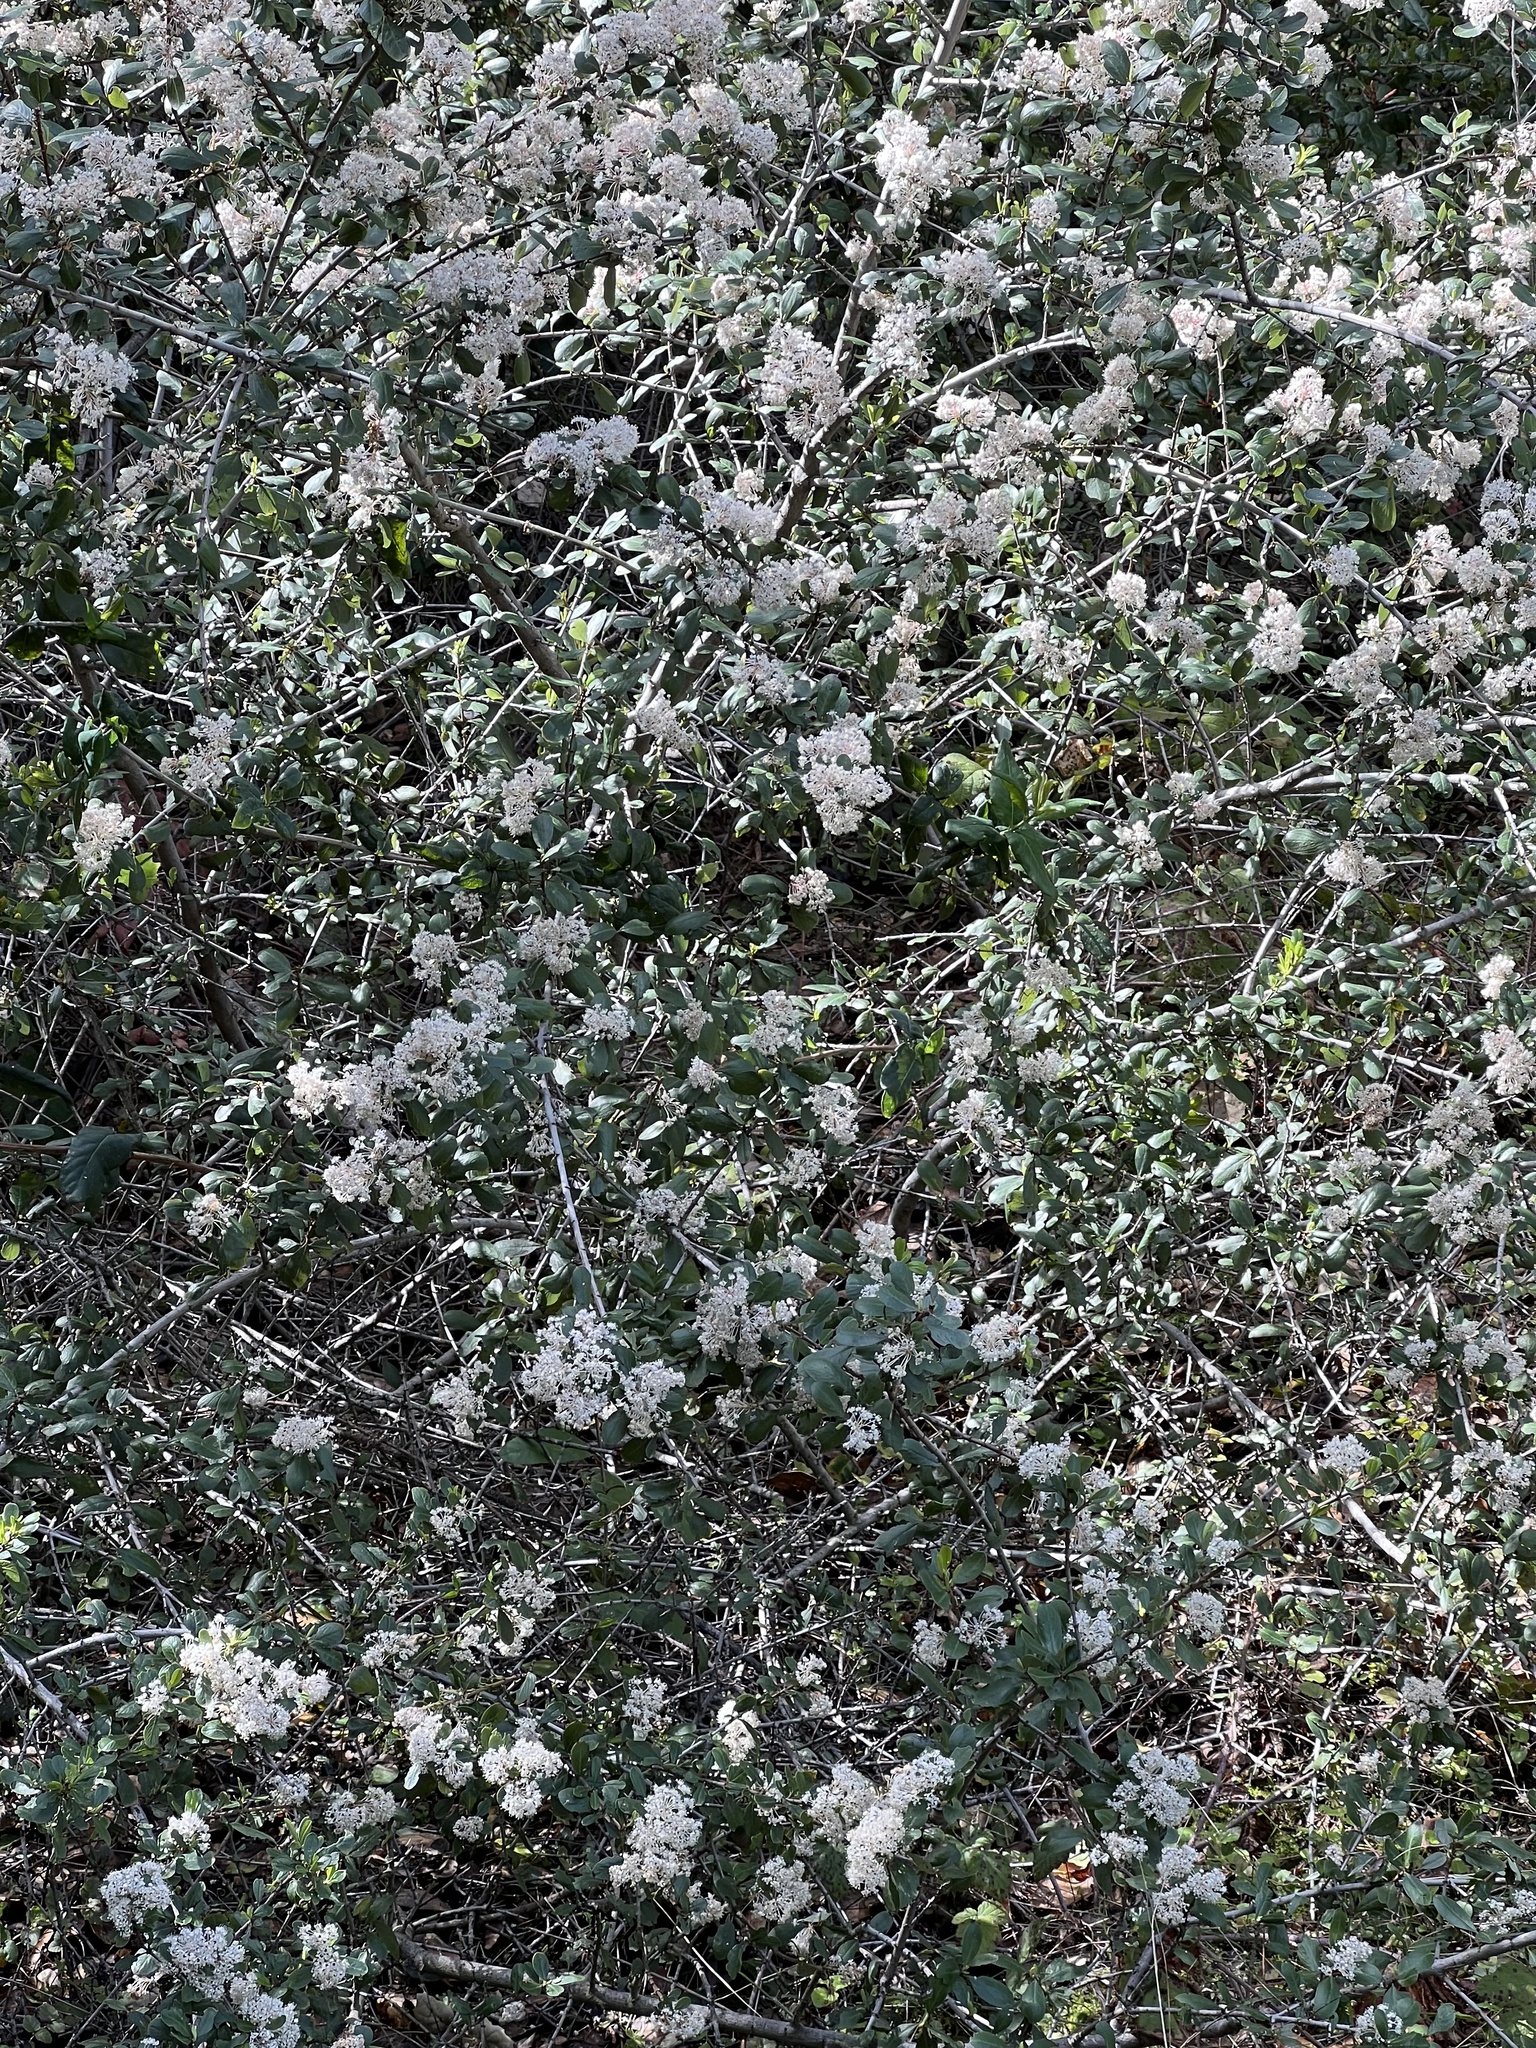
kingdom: Plantae
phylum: Tracheophyta
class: Magnoliopsida
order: Rosales
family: Rhamnaceae
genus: Ceanothus
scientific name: Ceanothus cuneatus
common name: Cuneate ceanothus
